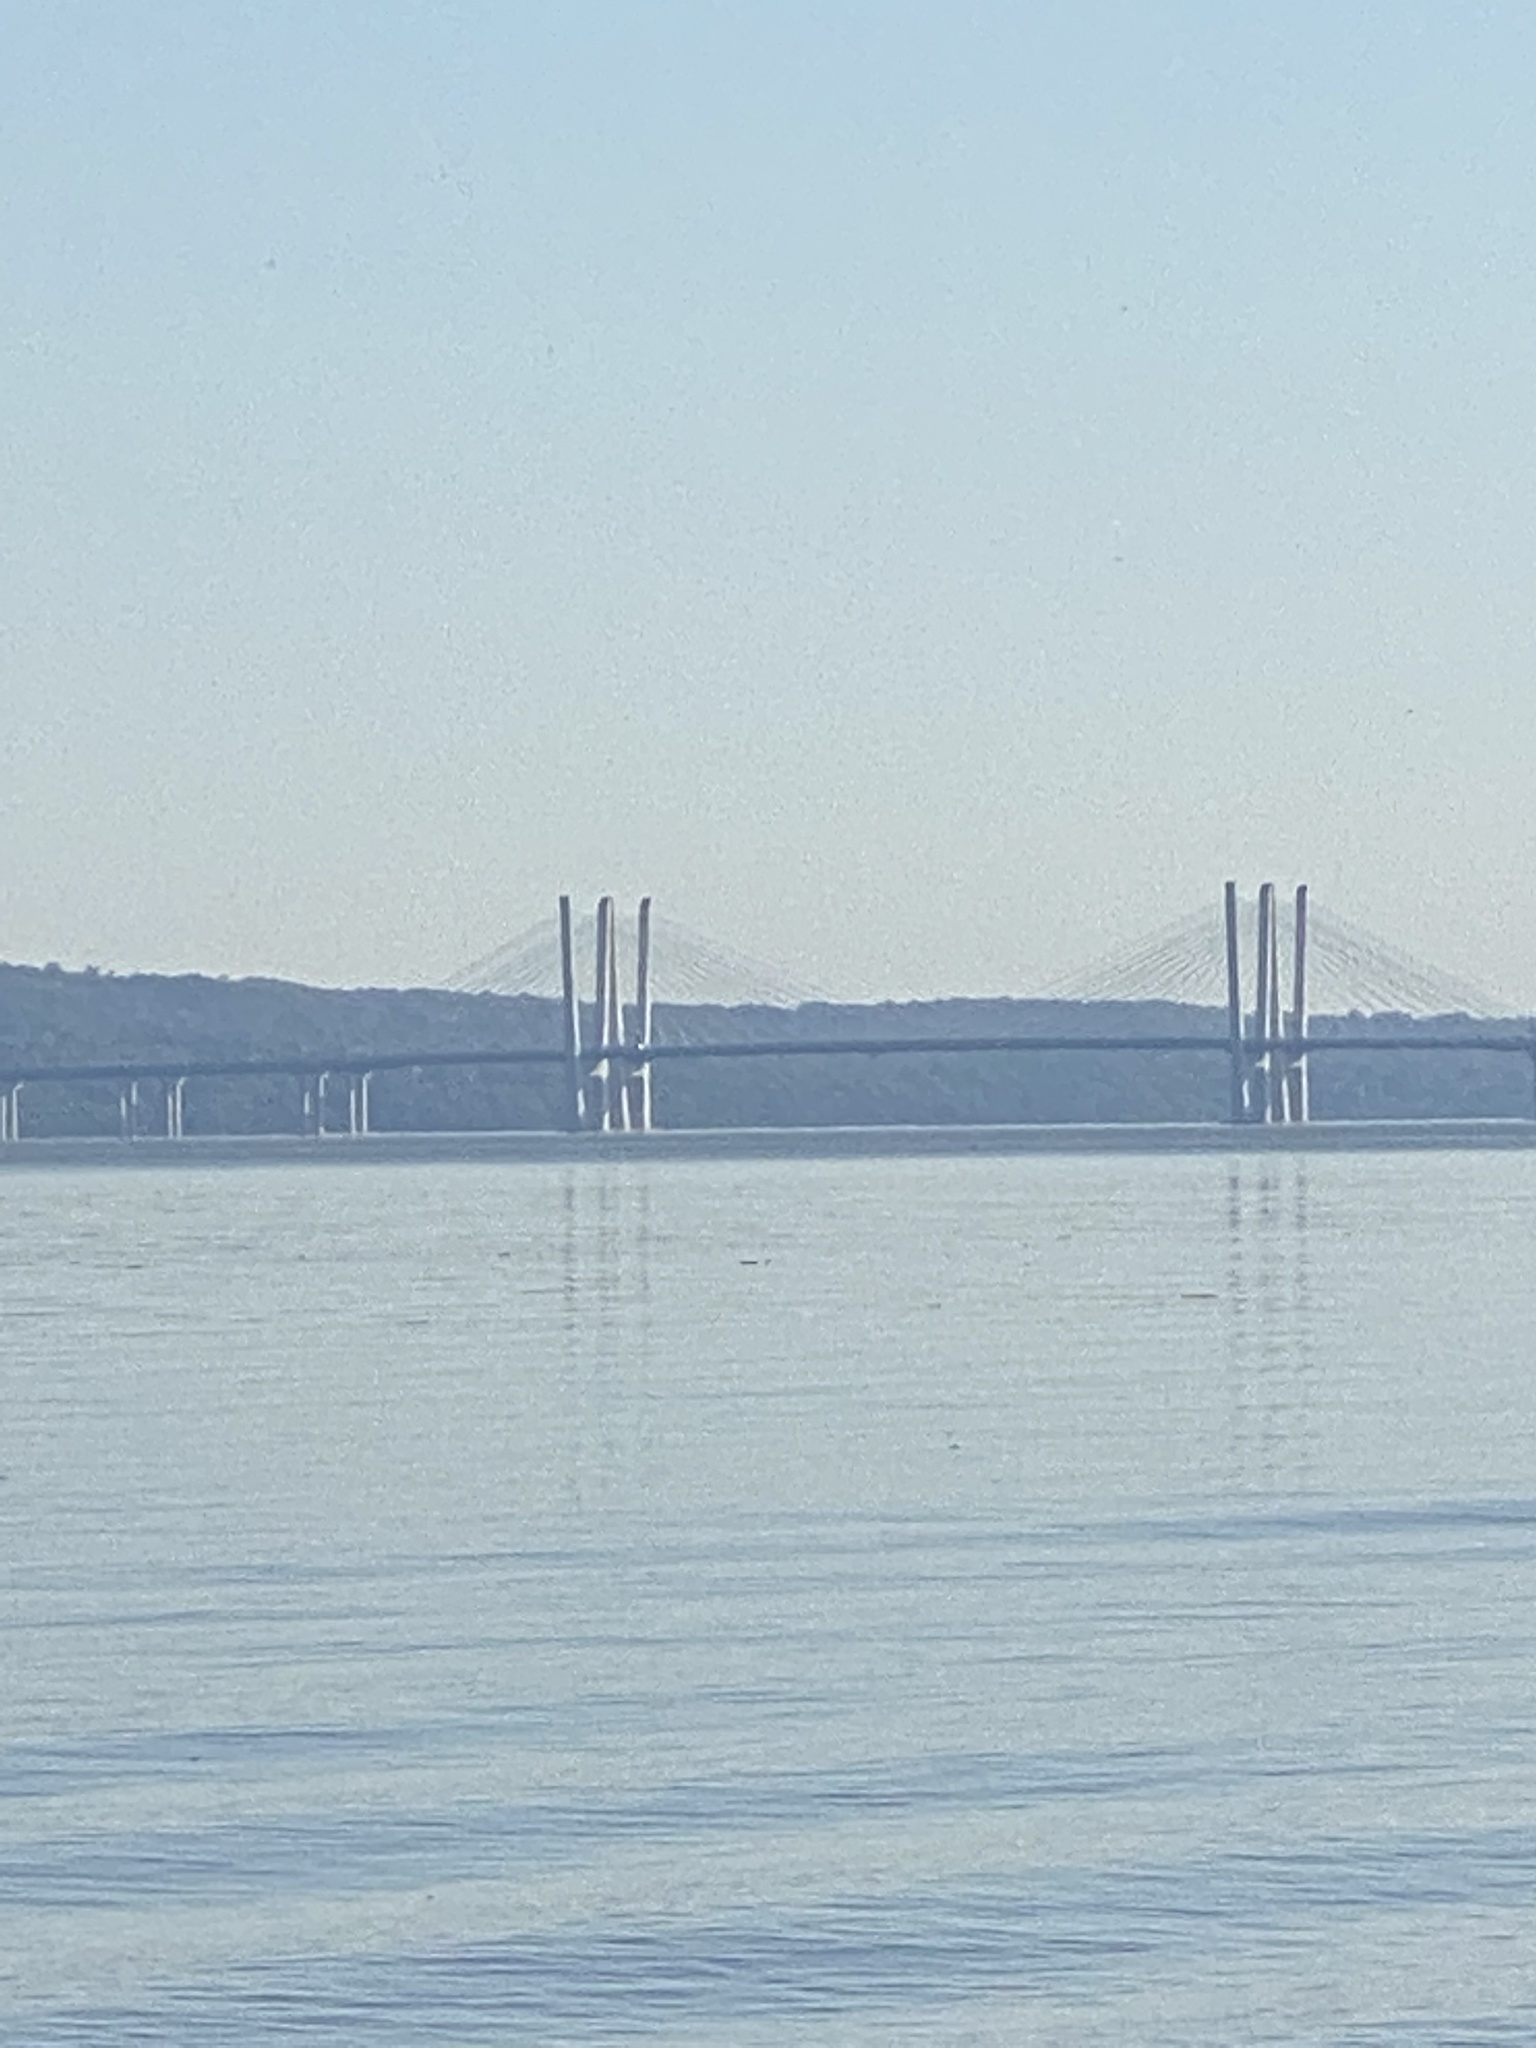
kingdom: Plantae
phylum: Tracheophyta
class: Magnoliopsida
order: Asterales
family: Asteraceae
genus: Solidago
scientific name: Solidago flexicaulis
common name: Zig-zag goldenrod
